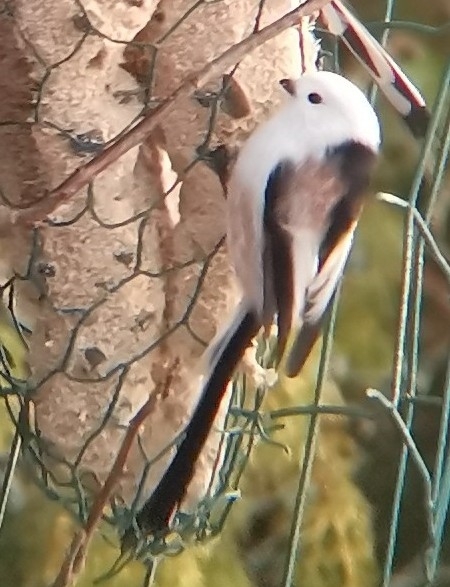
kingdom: Animalia
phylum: Chordata
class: Aves
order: Passeriformes
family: Aegithalidae
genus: Aegithalos
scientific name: Aegithalos caudatus
